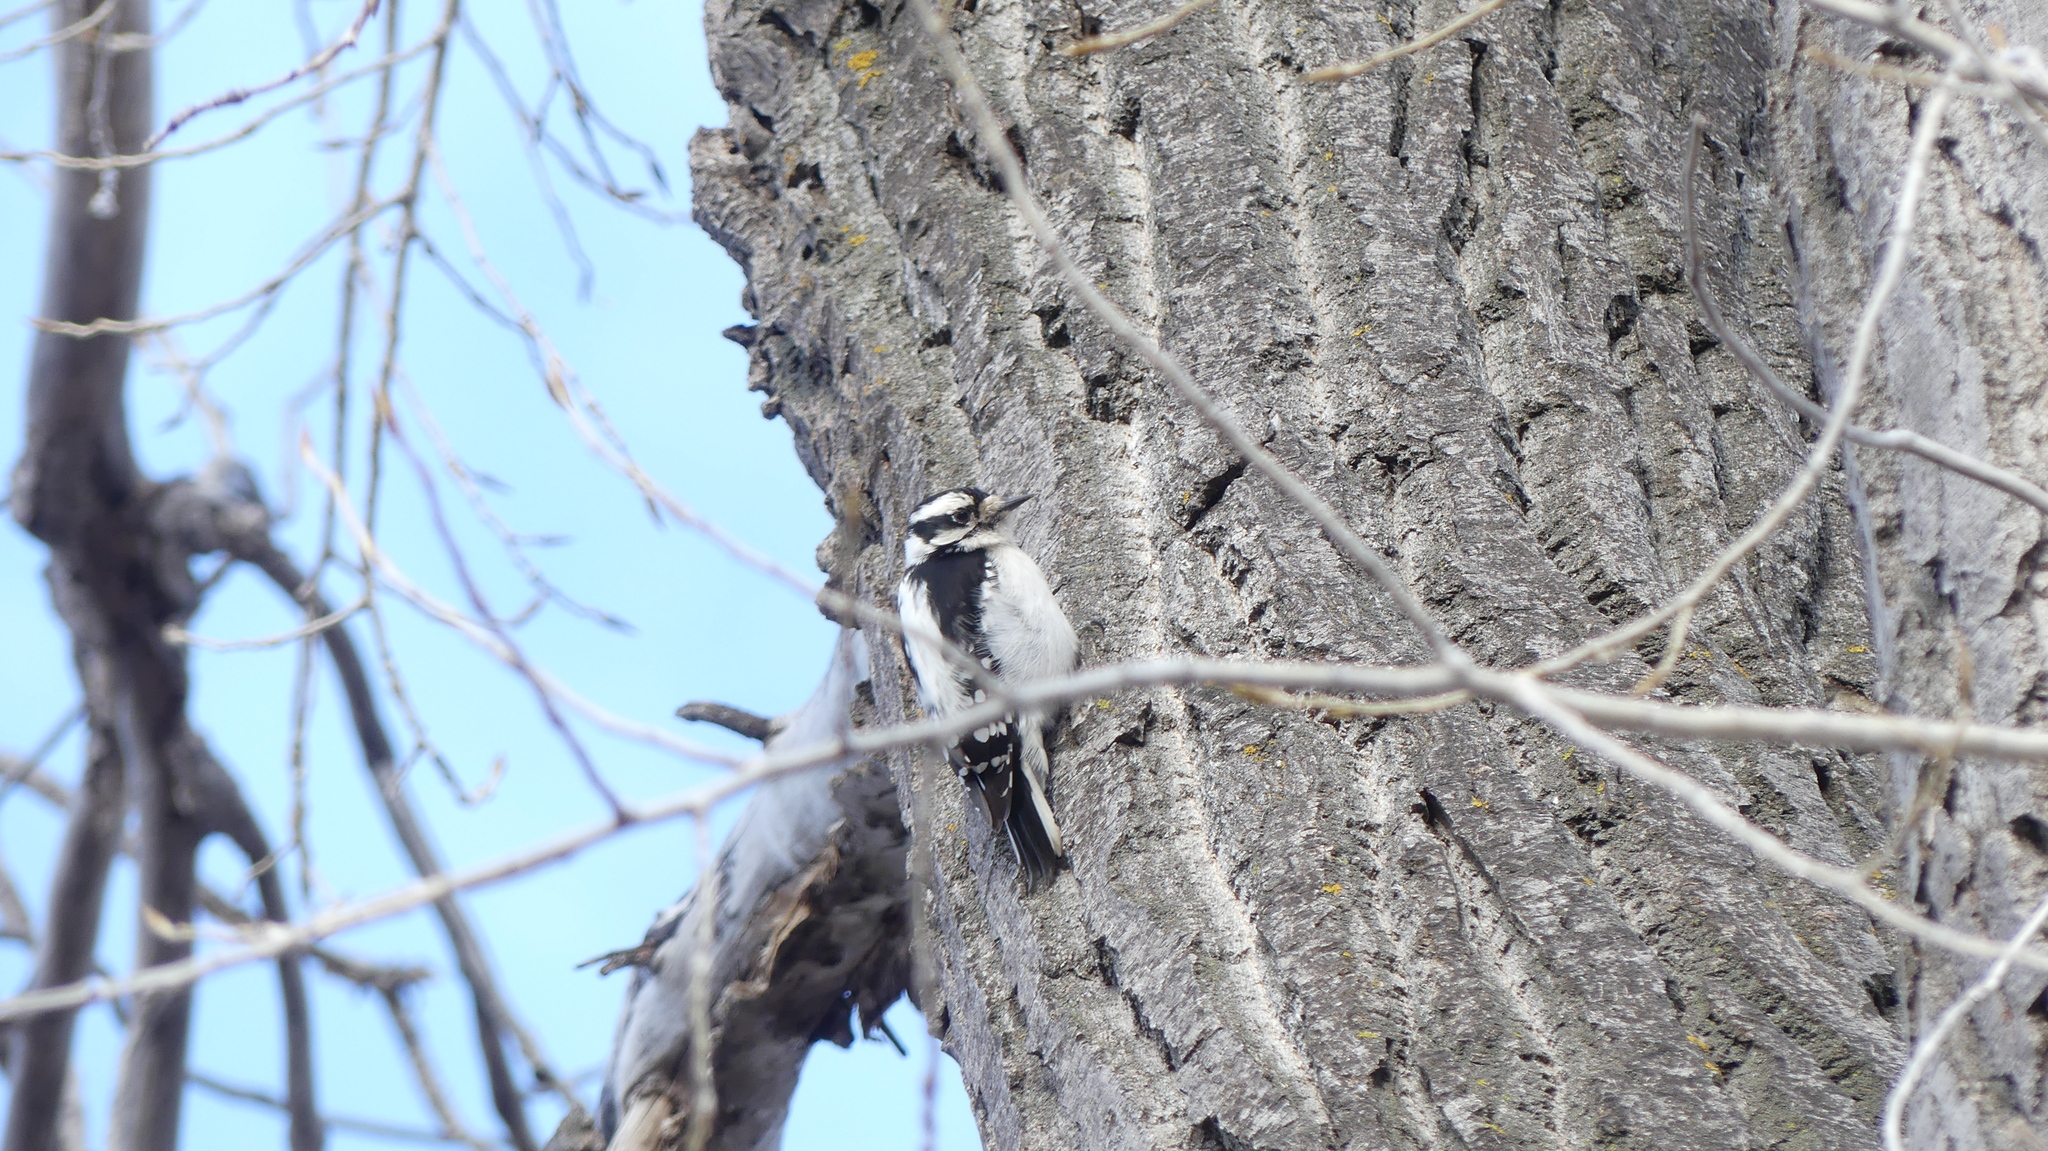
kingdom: Animalia
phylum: Chordata
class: Aves
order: Piciformes
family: Picidae
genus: Dryobates
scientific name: Dryobates pubescens
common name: Downy woodpecker
